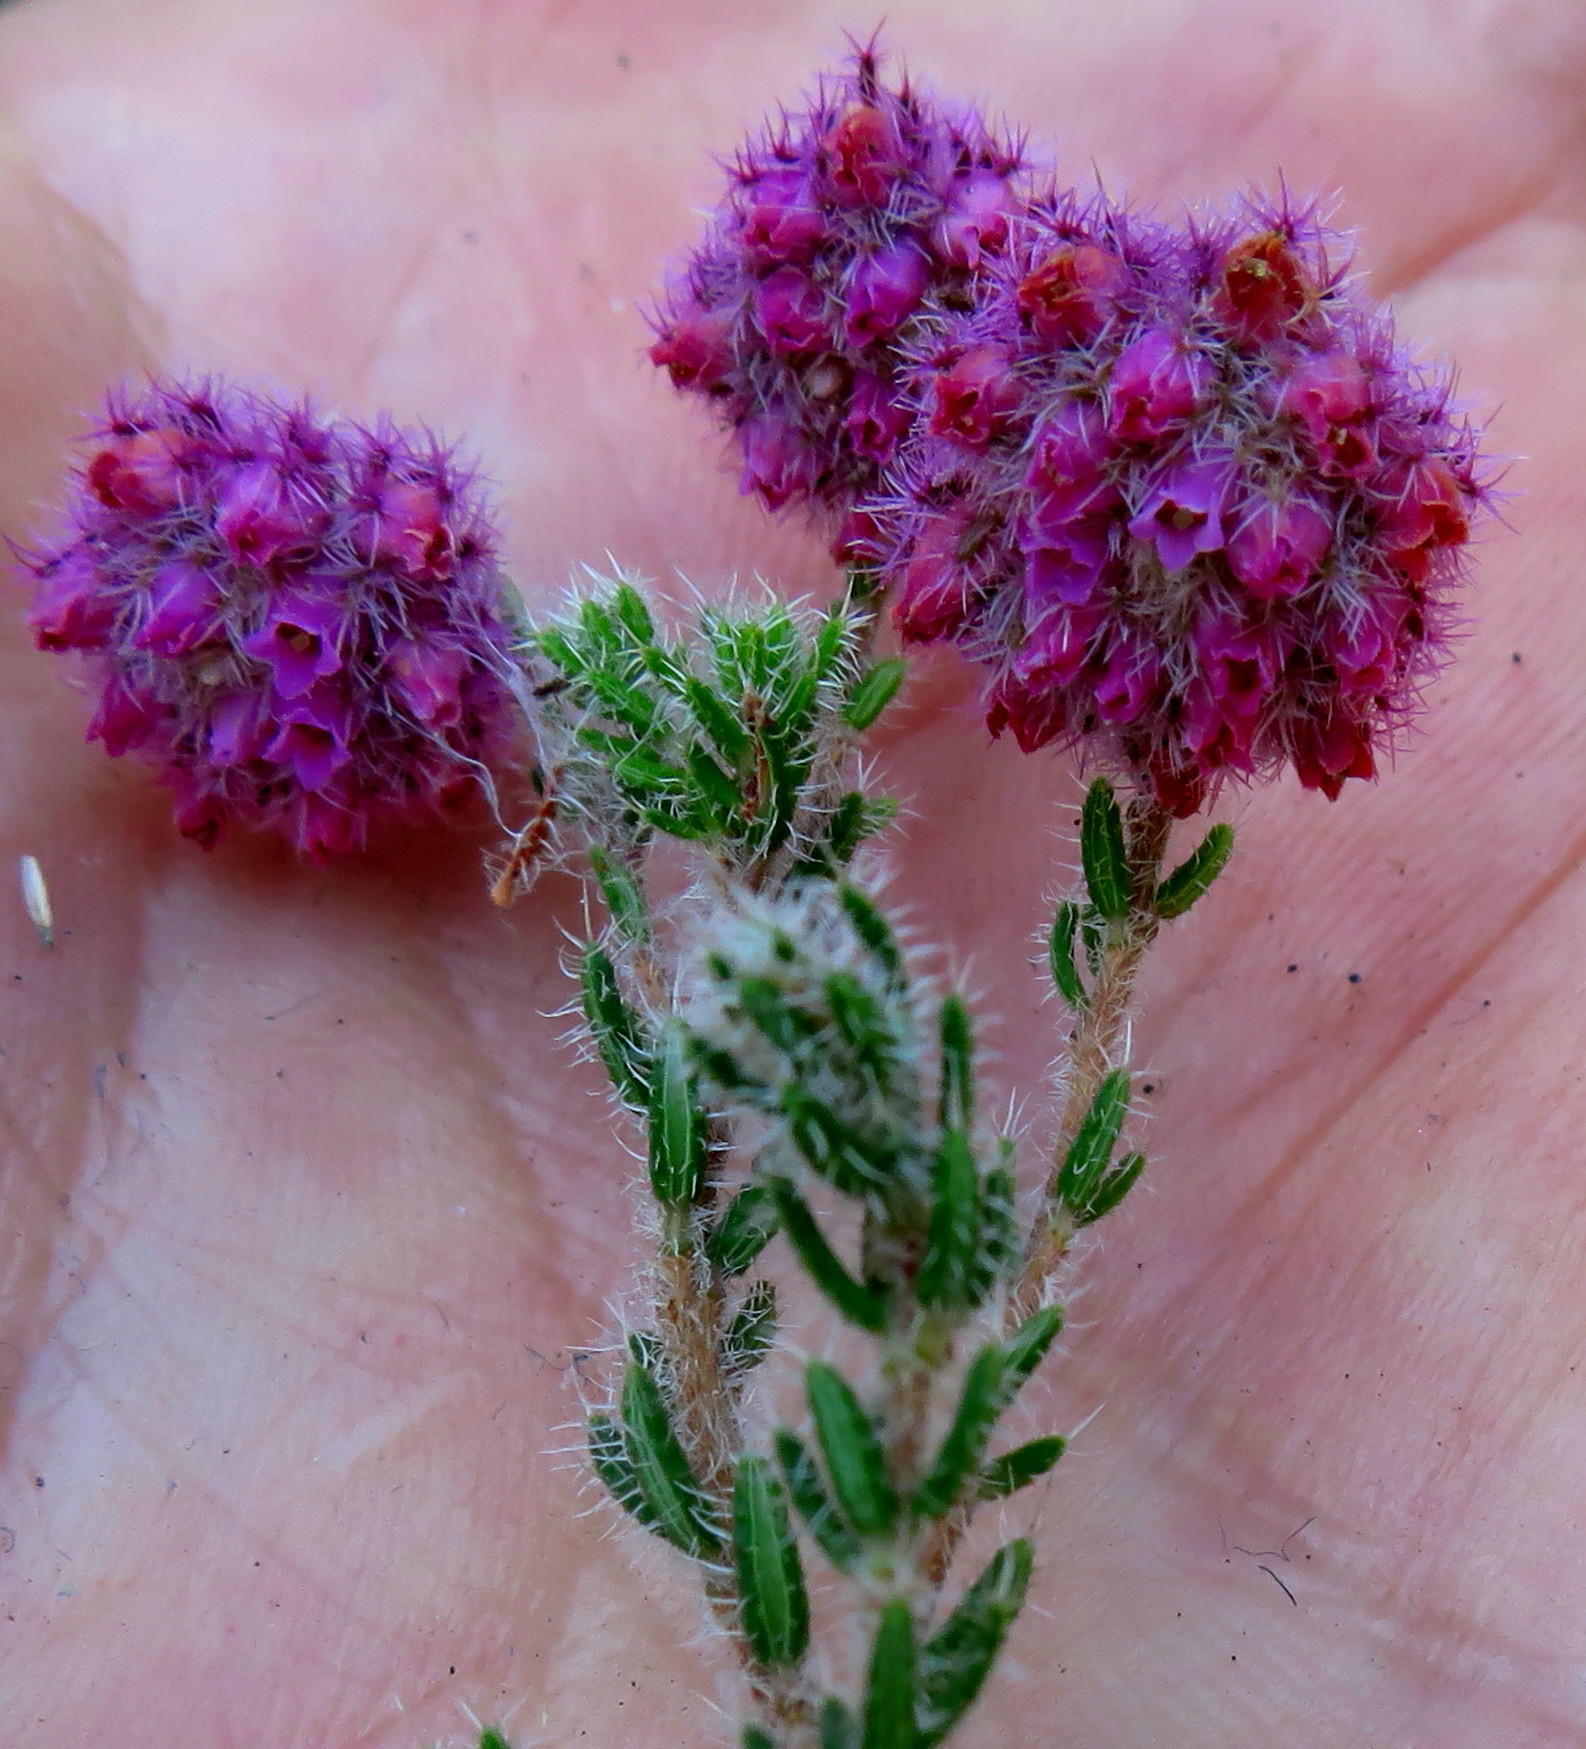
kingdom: Plantae
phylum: Tracheophyta
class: Magnoliopsida
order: Ericales
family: Ericaceae
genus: Erica
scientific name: Erica solandra
